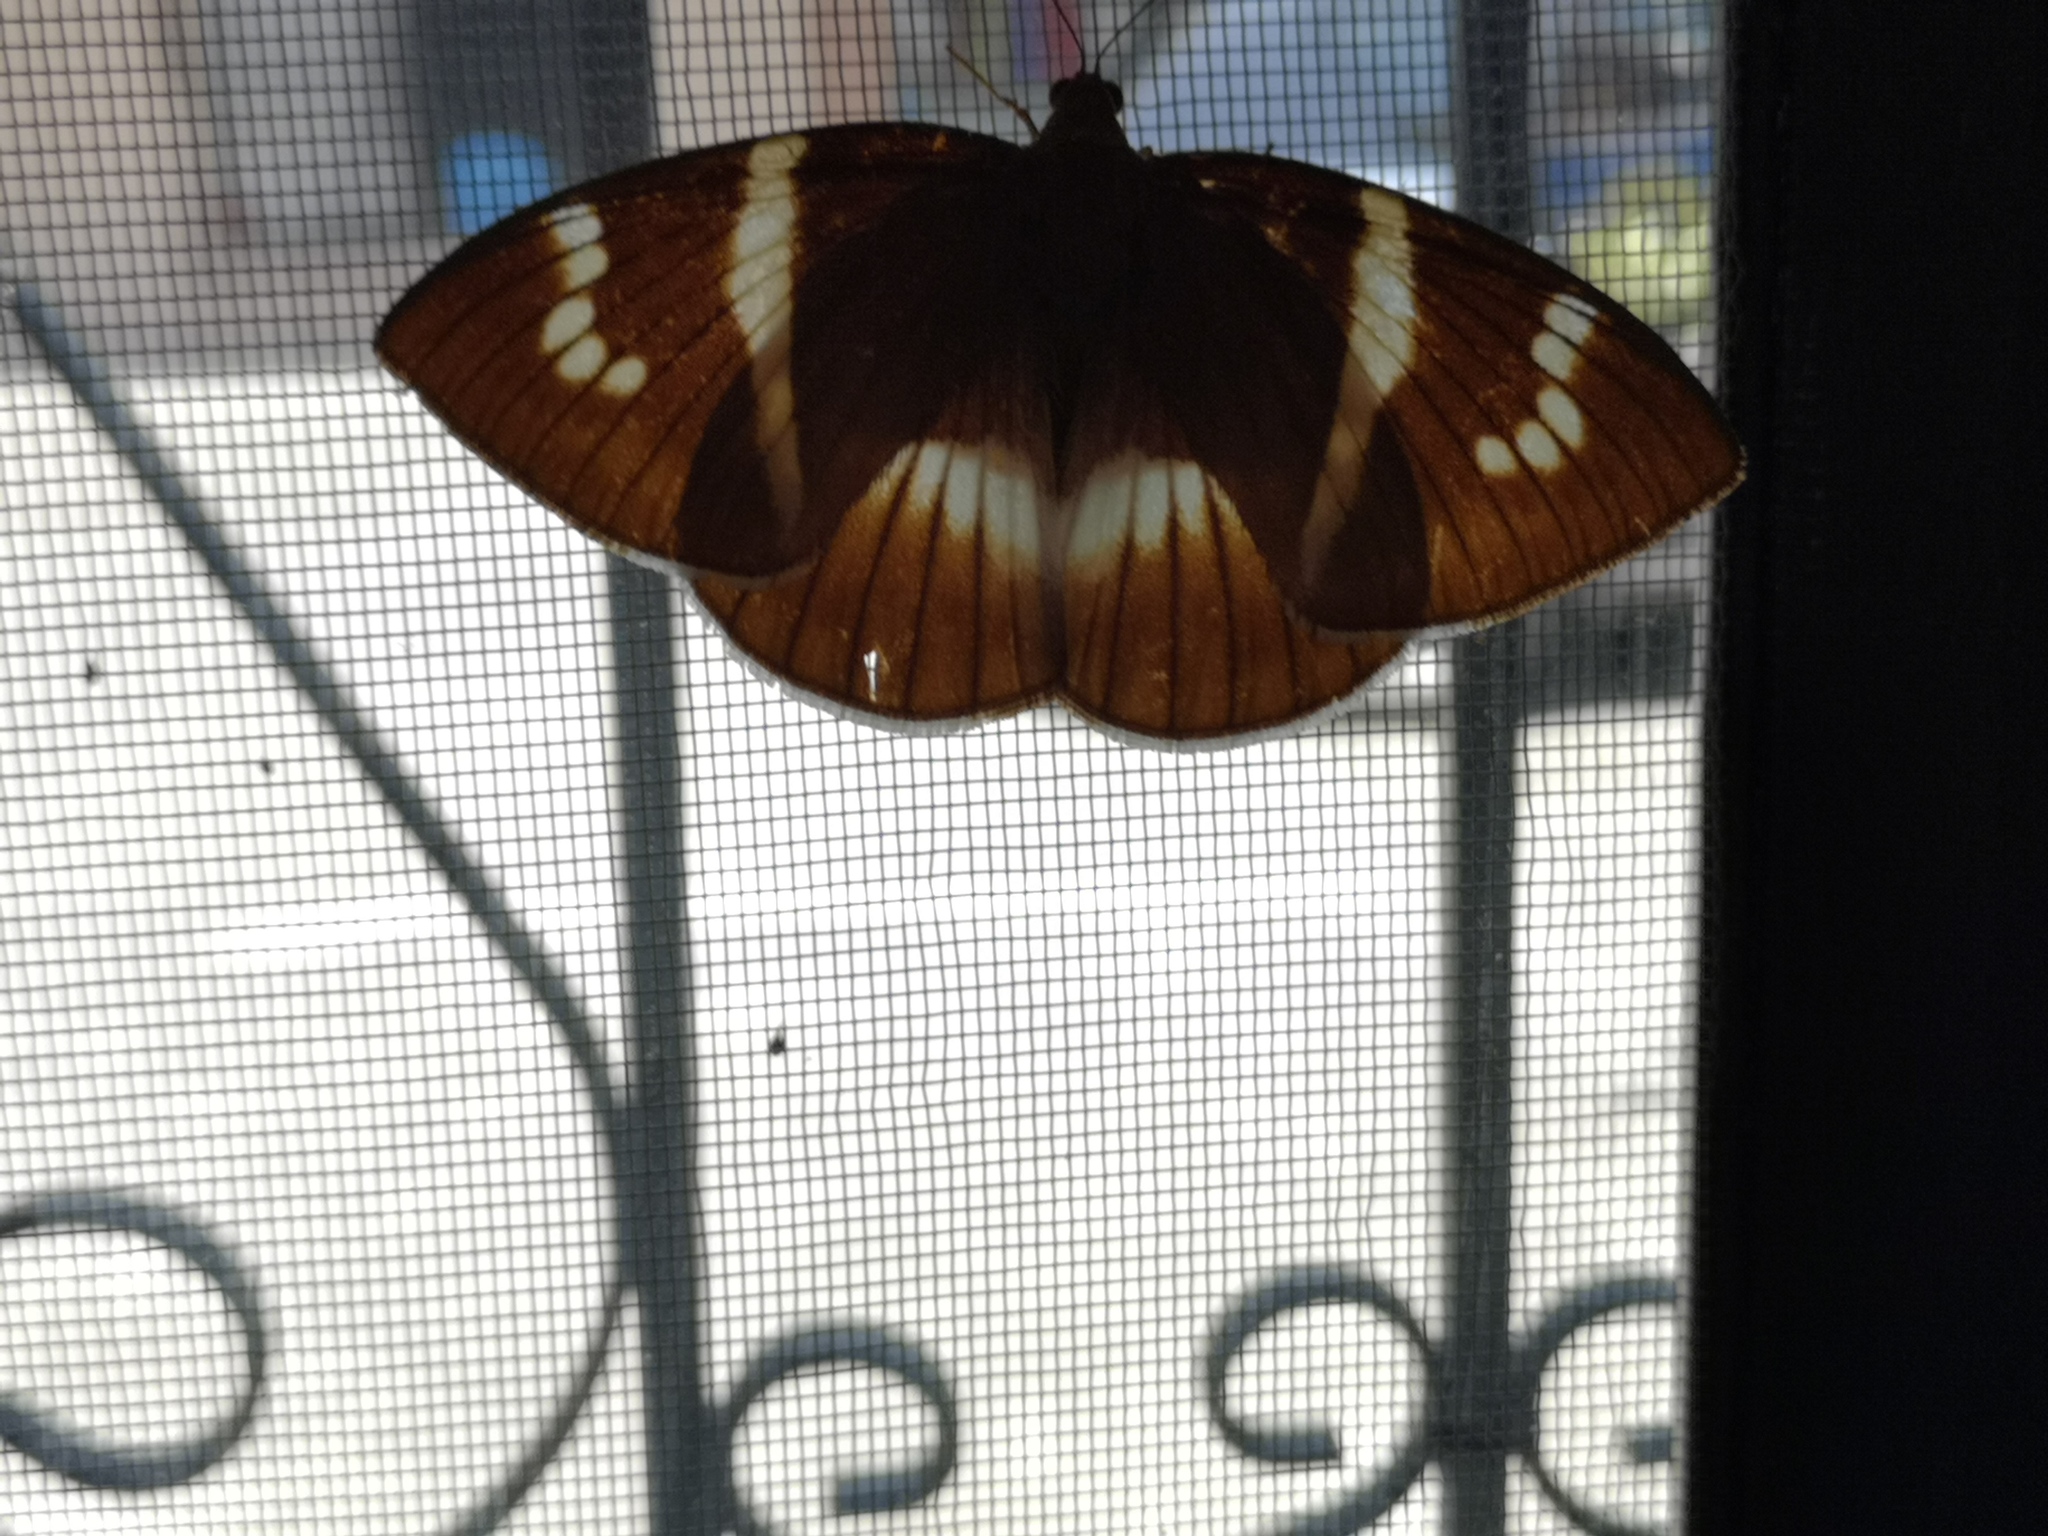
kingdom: Animalia
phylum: Arthropoda
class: Insecta
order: Lepidoptera
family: Castniidae
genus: Castniomera
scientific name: Castniomera atymnius
